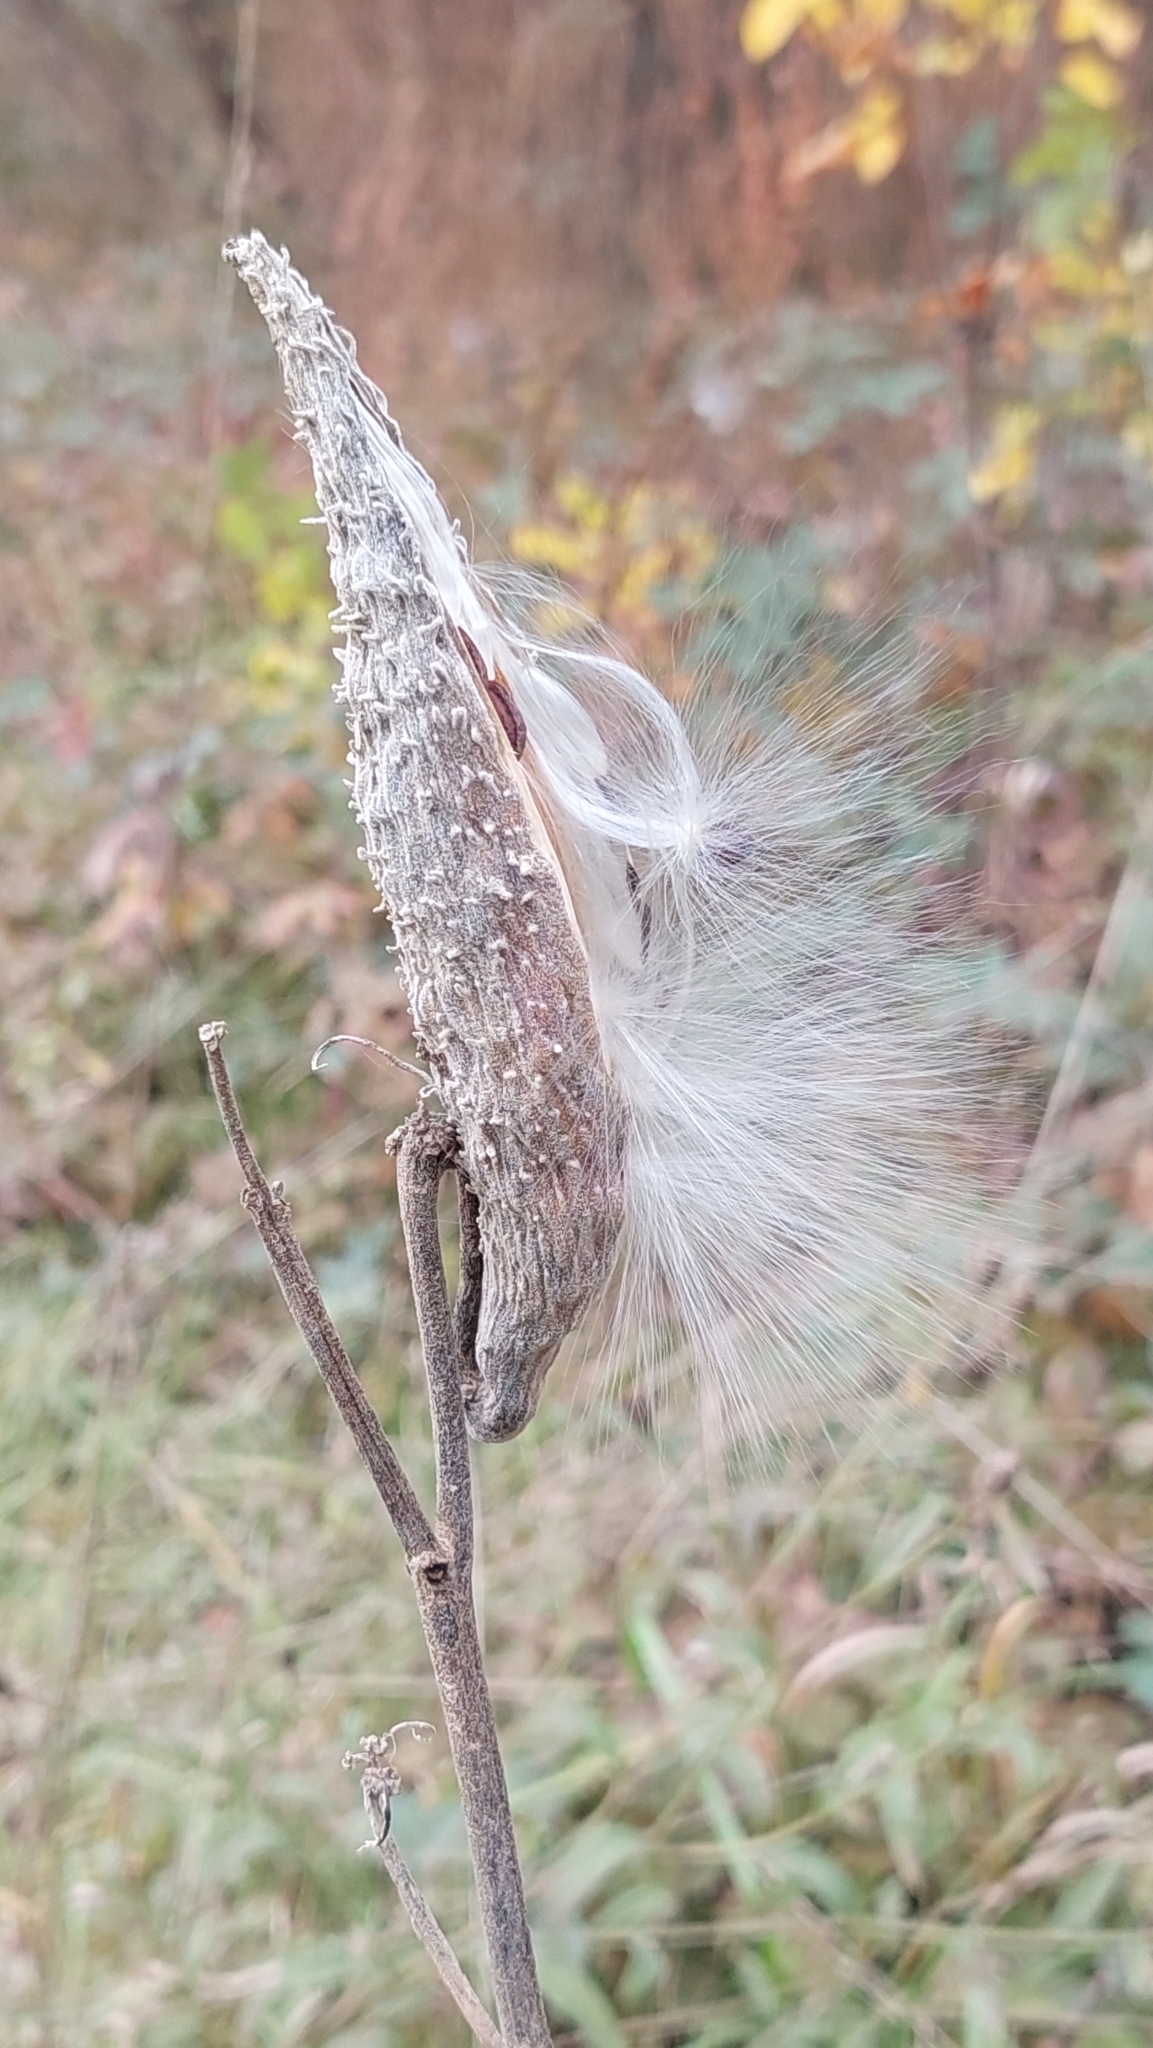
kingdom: Plantae
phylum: Tracheophyta
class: Magnoliopsida
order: Gentianales
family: Apocynaceae
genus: Asclepias
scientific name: Asclepias syriaca
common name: Common milkweed
